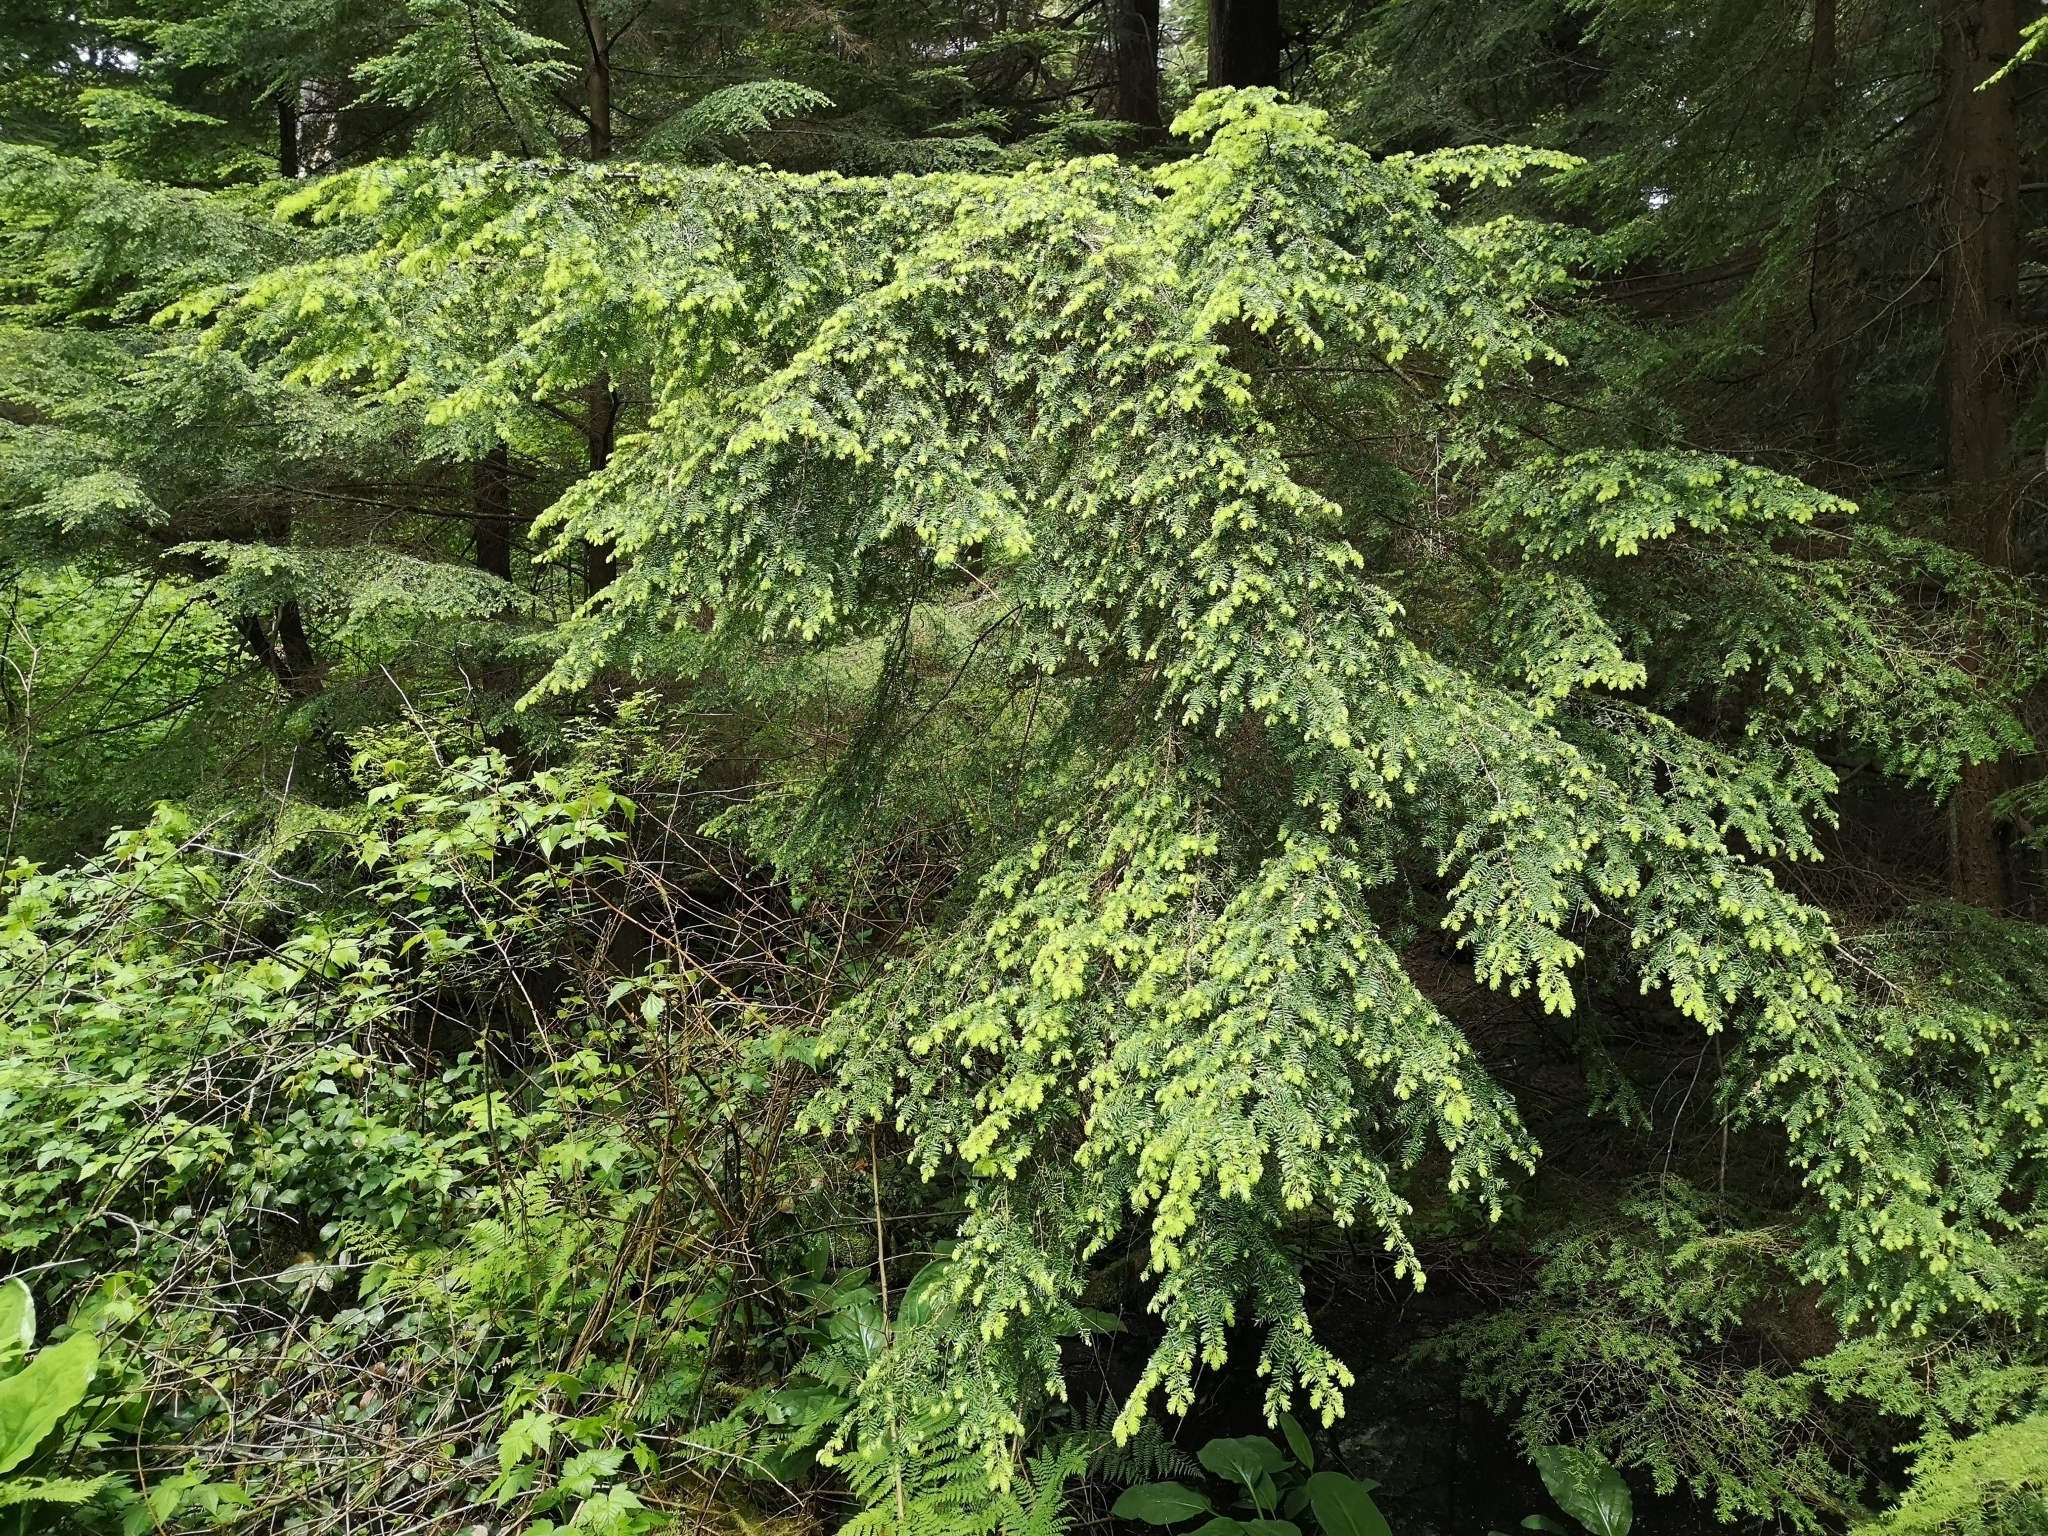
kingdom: Plantae
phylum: Tracheophyta
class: Pinopsida
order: Pinales
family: Pinaceae
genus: Tsuga
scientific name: Tsuga heterophylla
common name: Western hemlock
